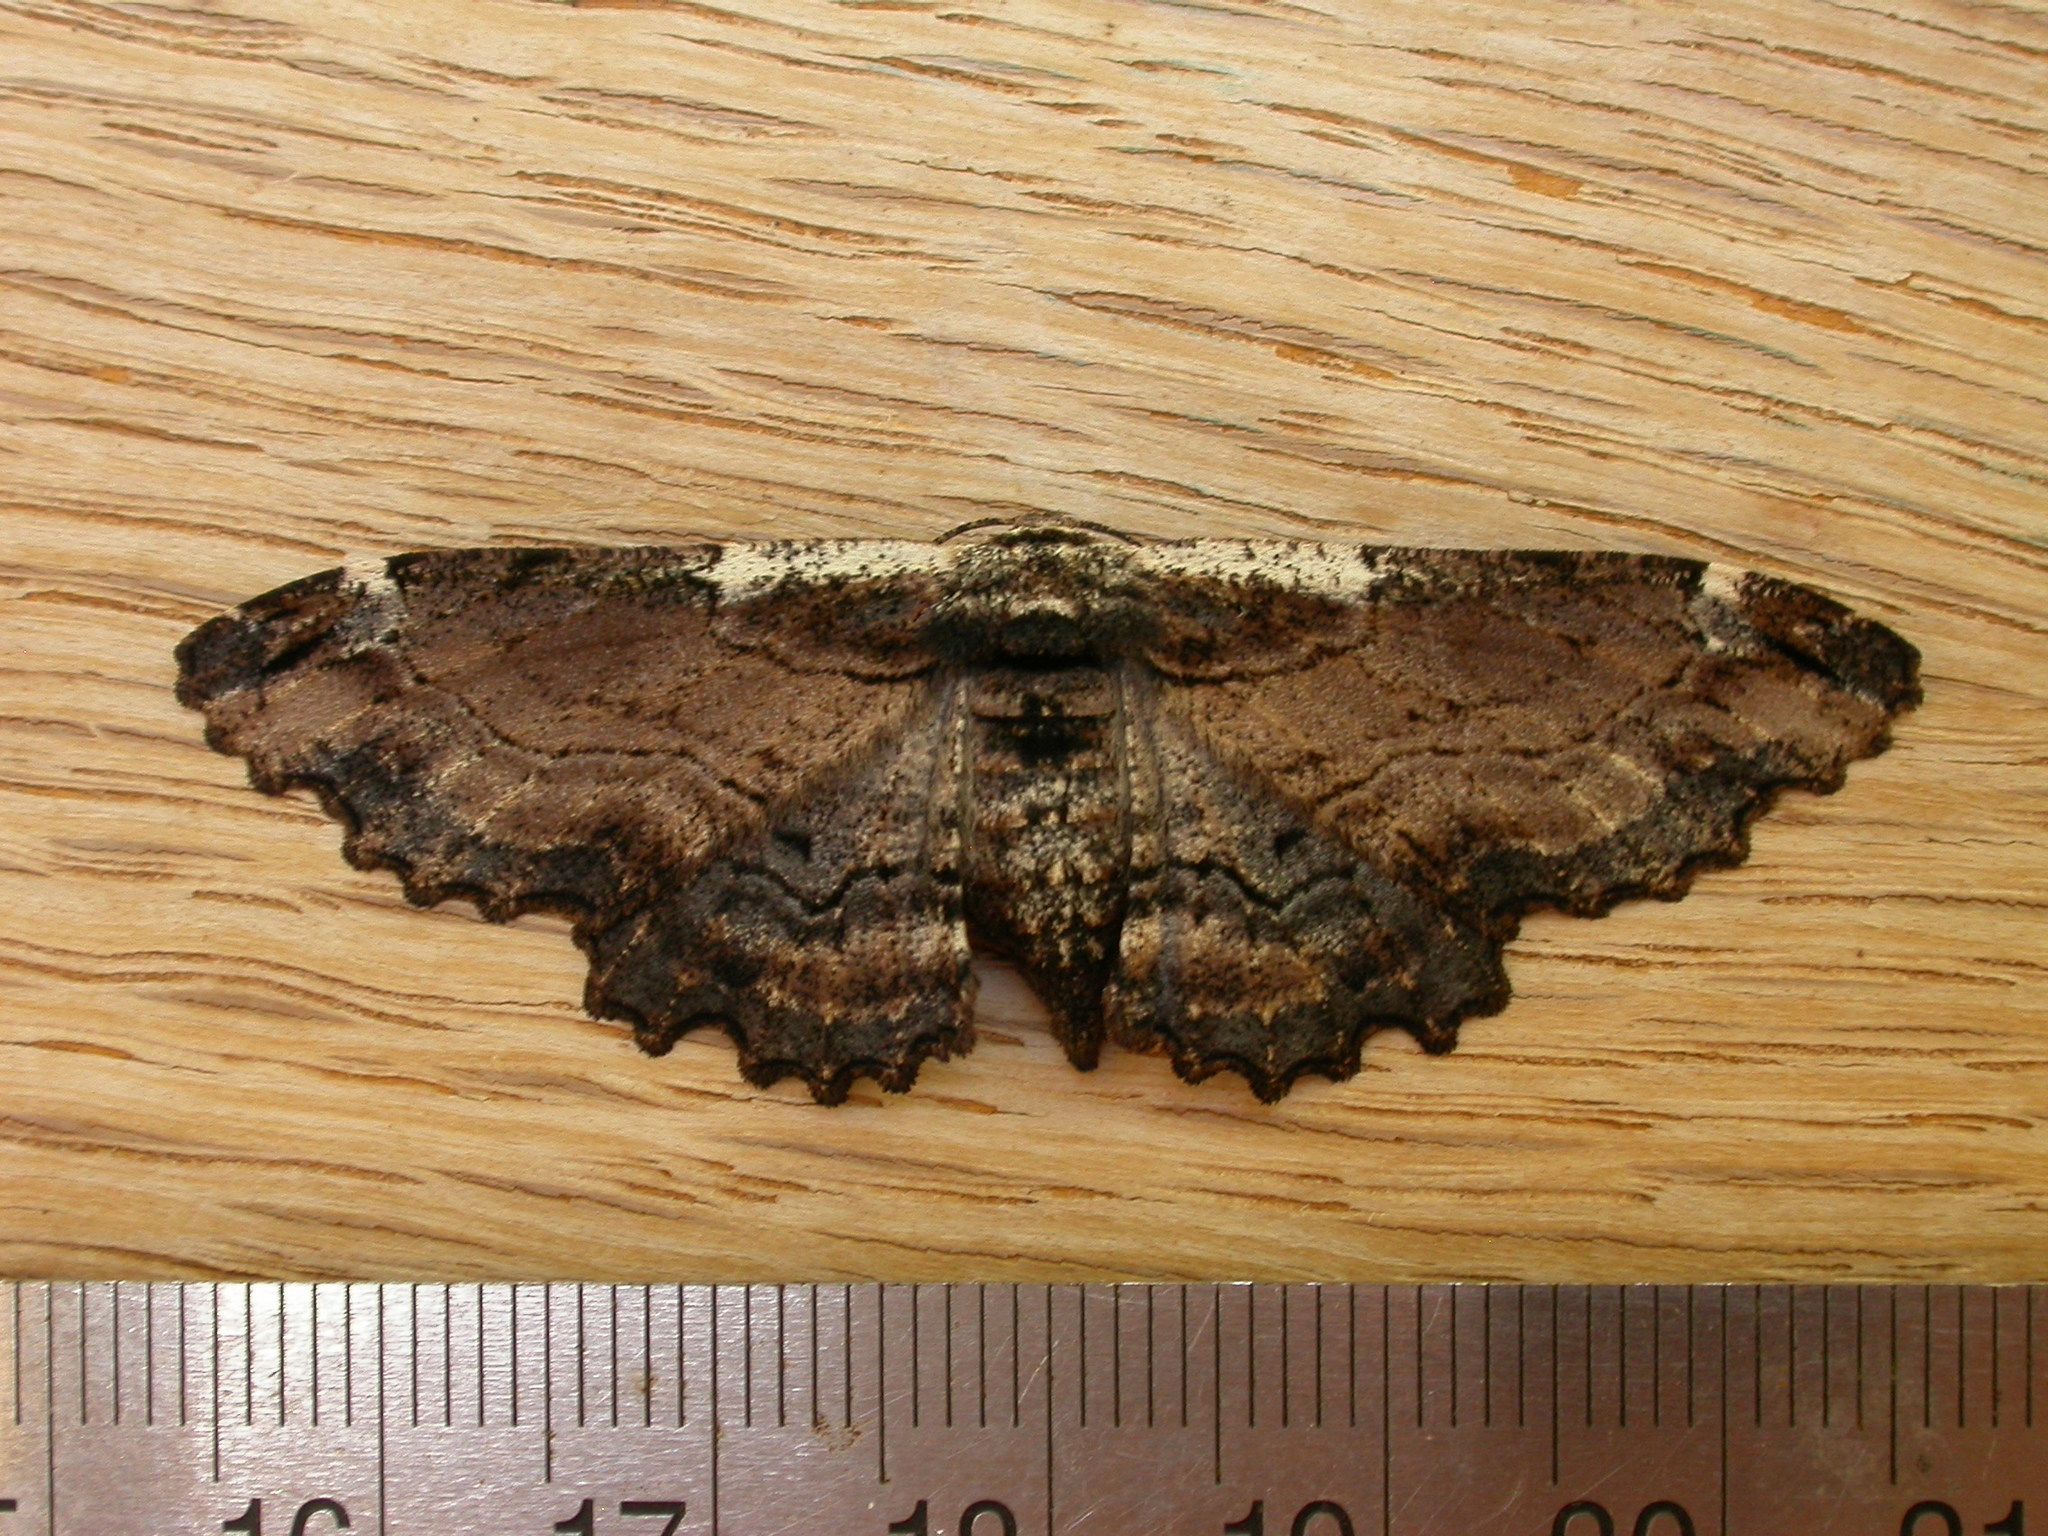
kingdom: Animalia
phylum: Arthropoda
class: Insecta
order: Lepidoptera
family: Geometridae
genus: Pholodes
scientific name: Pholodes sinistraria
